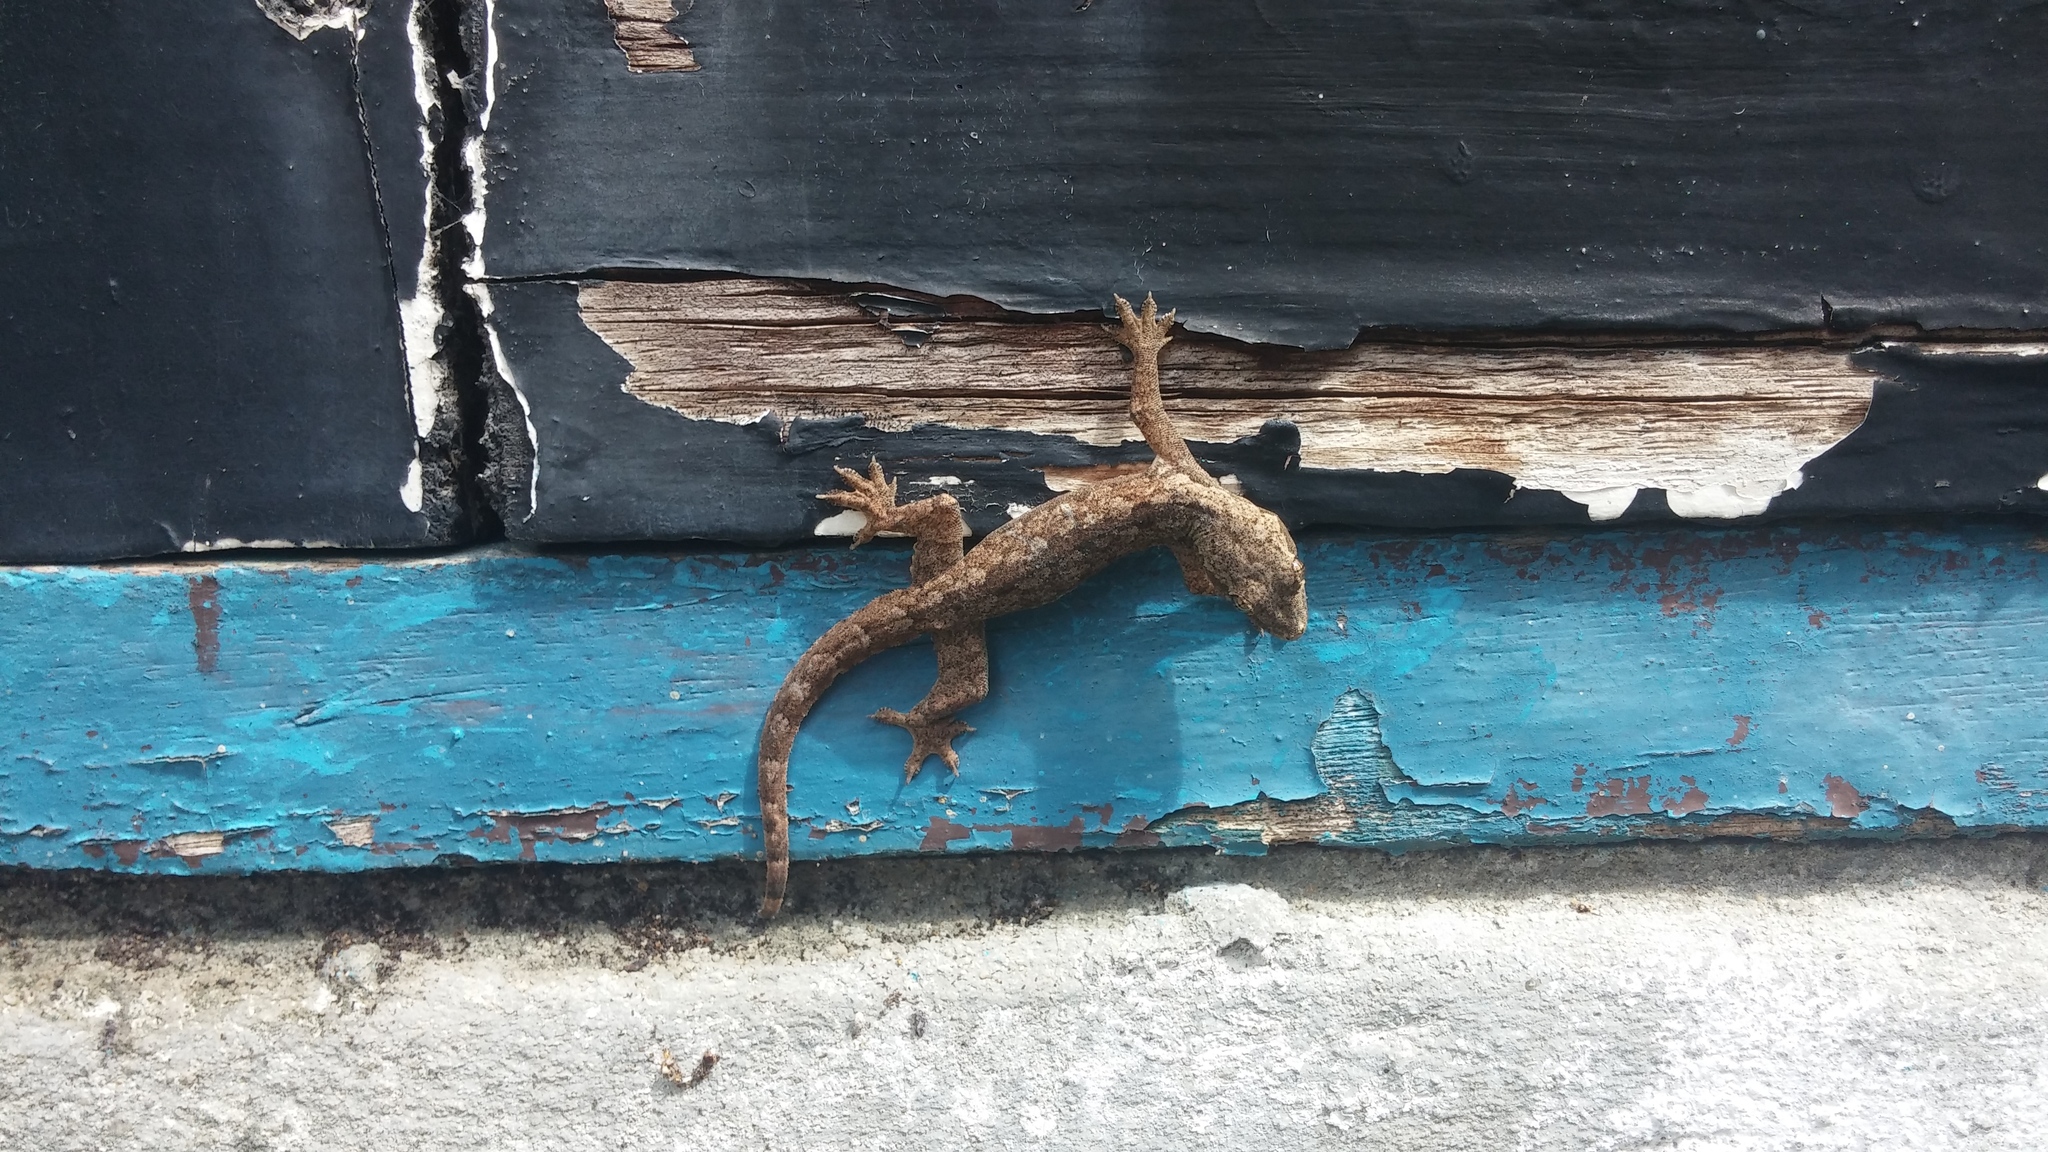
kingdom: Animalia
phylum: Chordata
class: Squamata
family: Gekkonidae
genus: Hemidactylus
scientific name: Hemidactylus platyurus
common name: Flat-tailed house gecko
